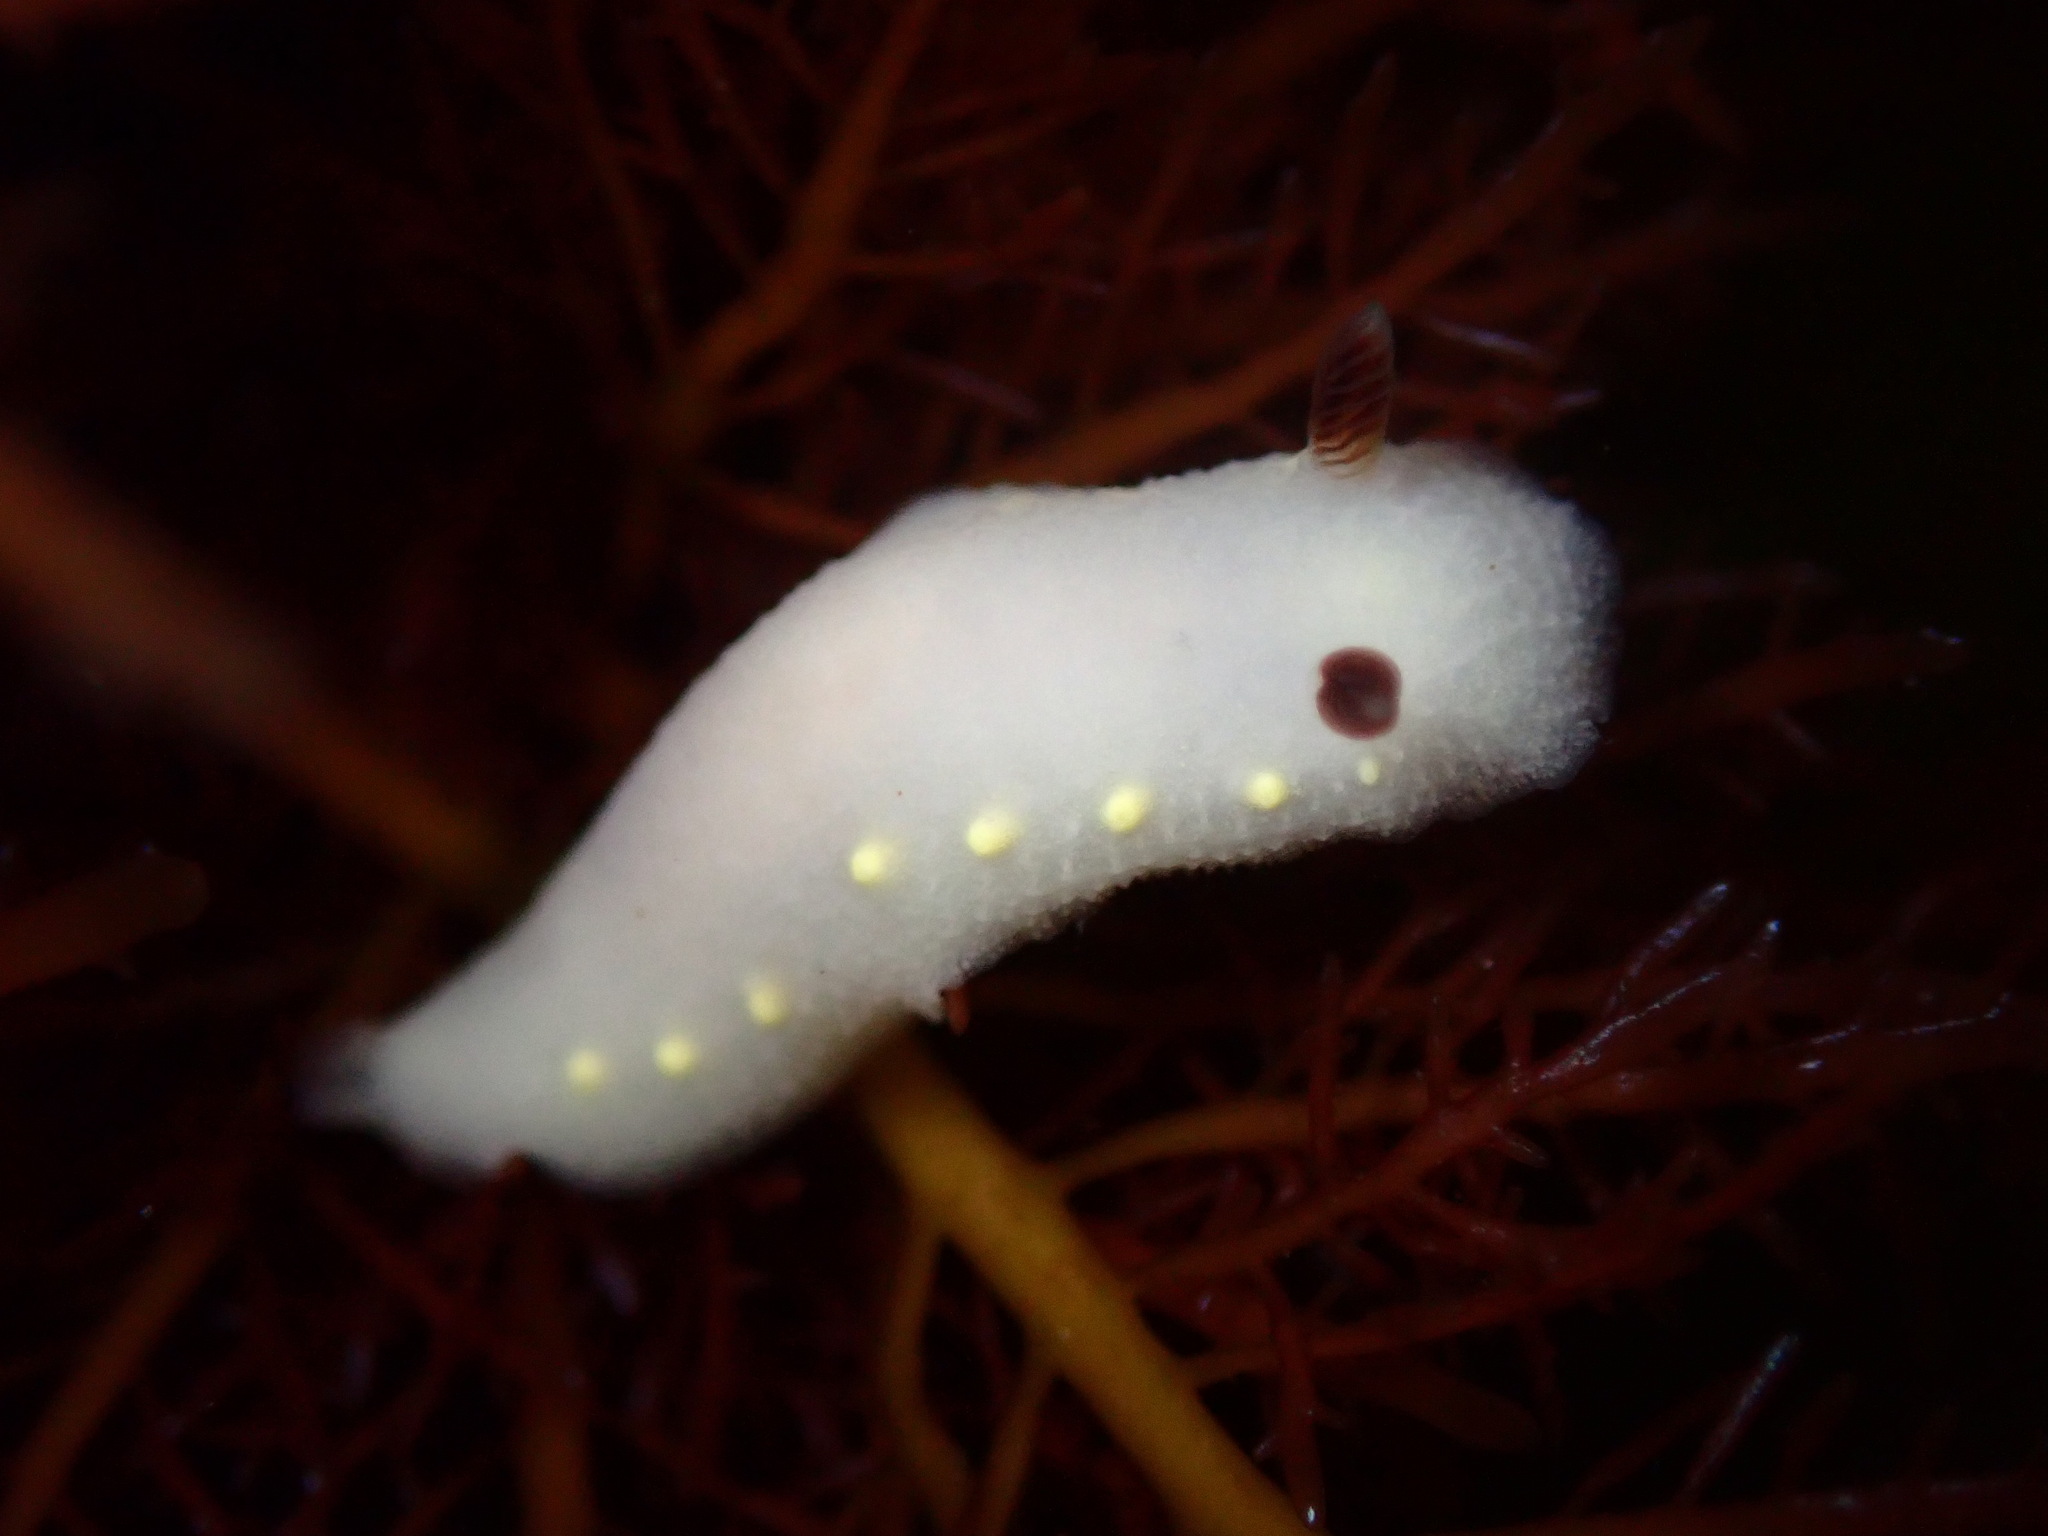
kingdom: Animalia
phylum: Mollusca
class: Gastropoda
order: Nudibranchia
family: Cadlinidae
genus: Cadlina
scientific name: Cadlina flavomaculata
